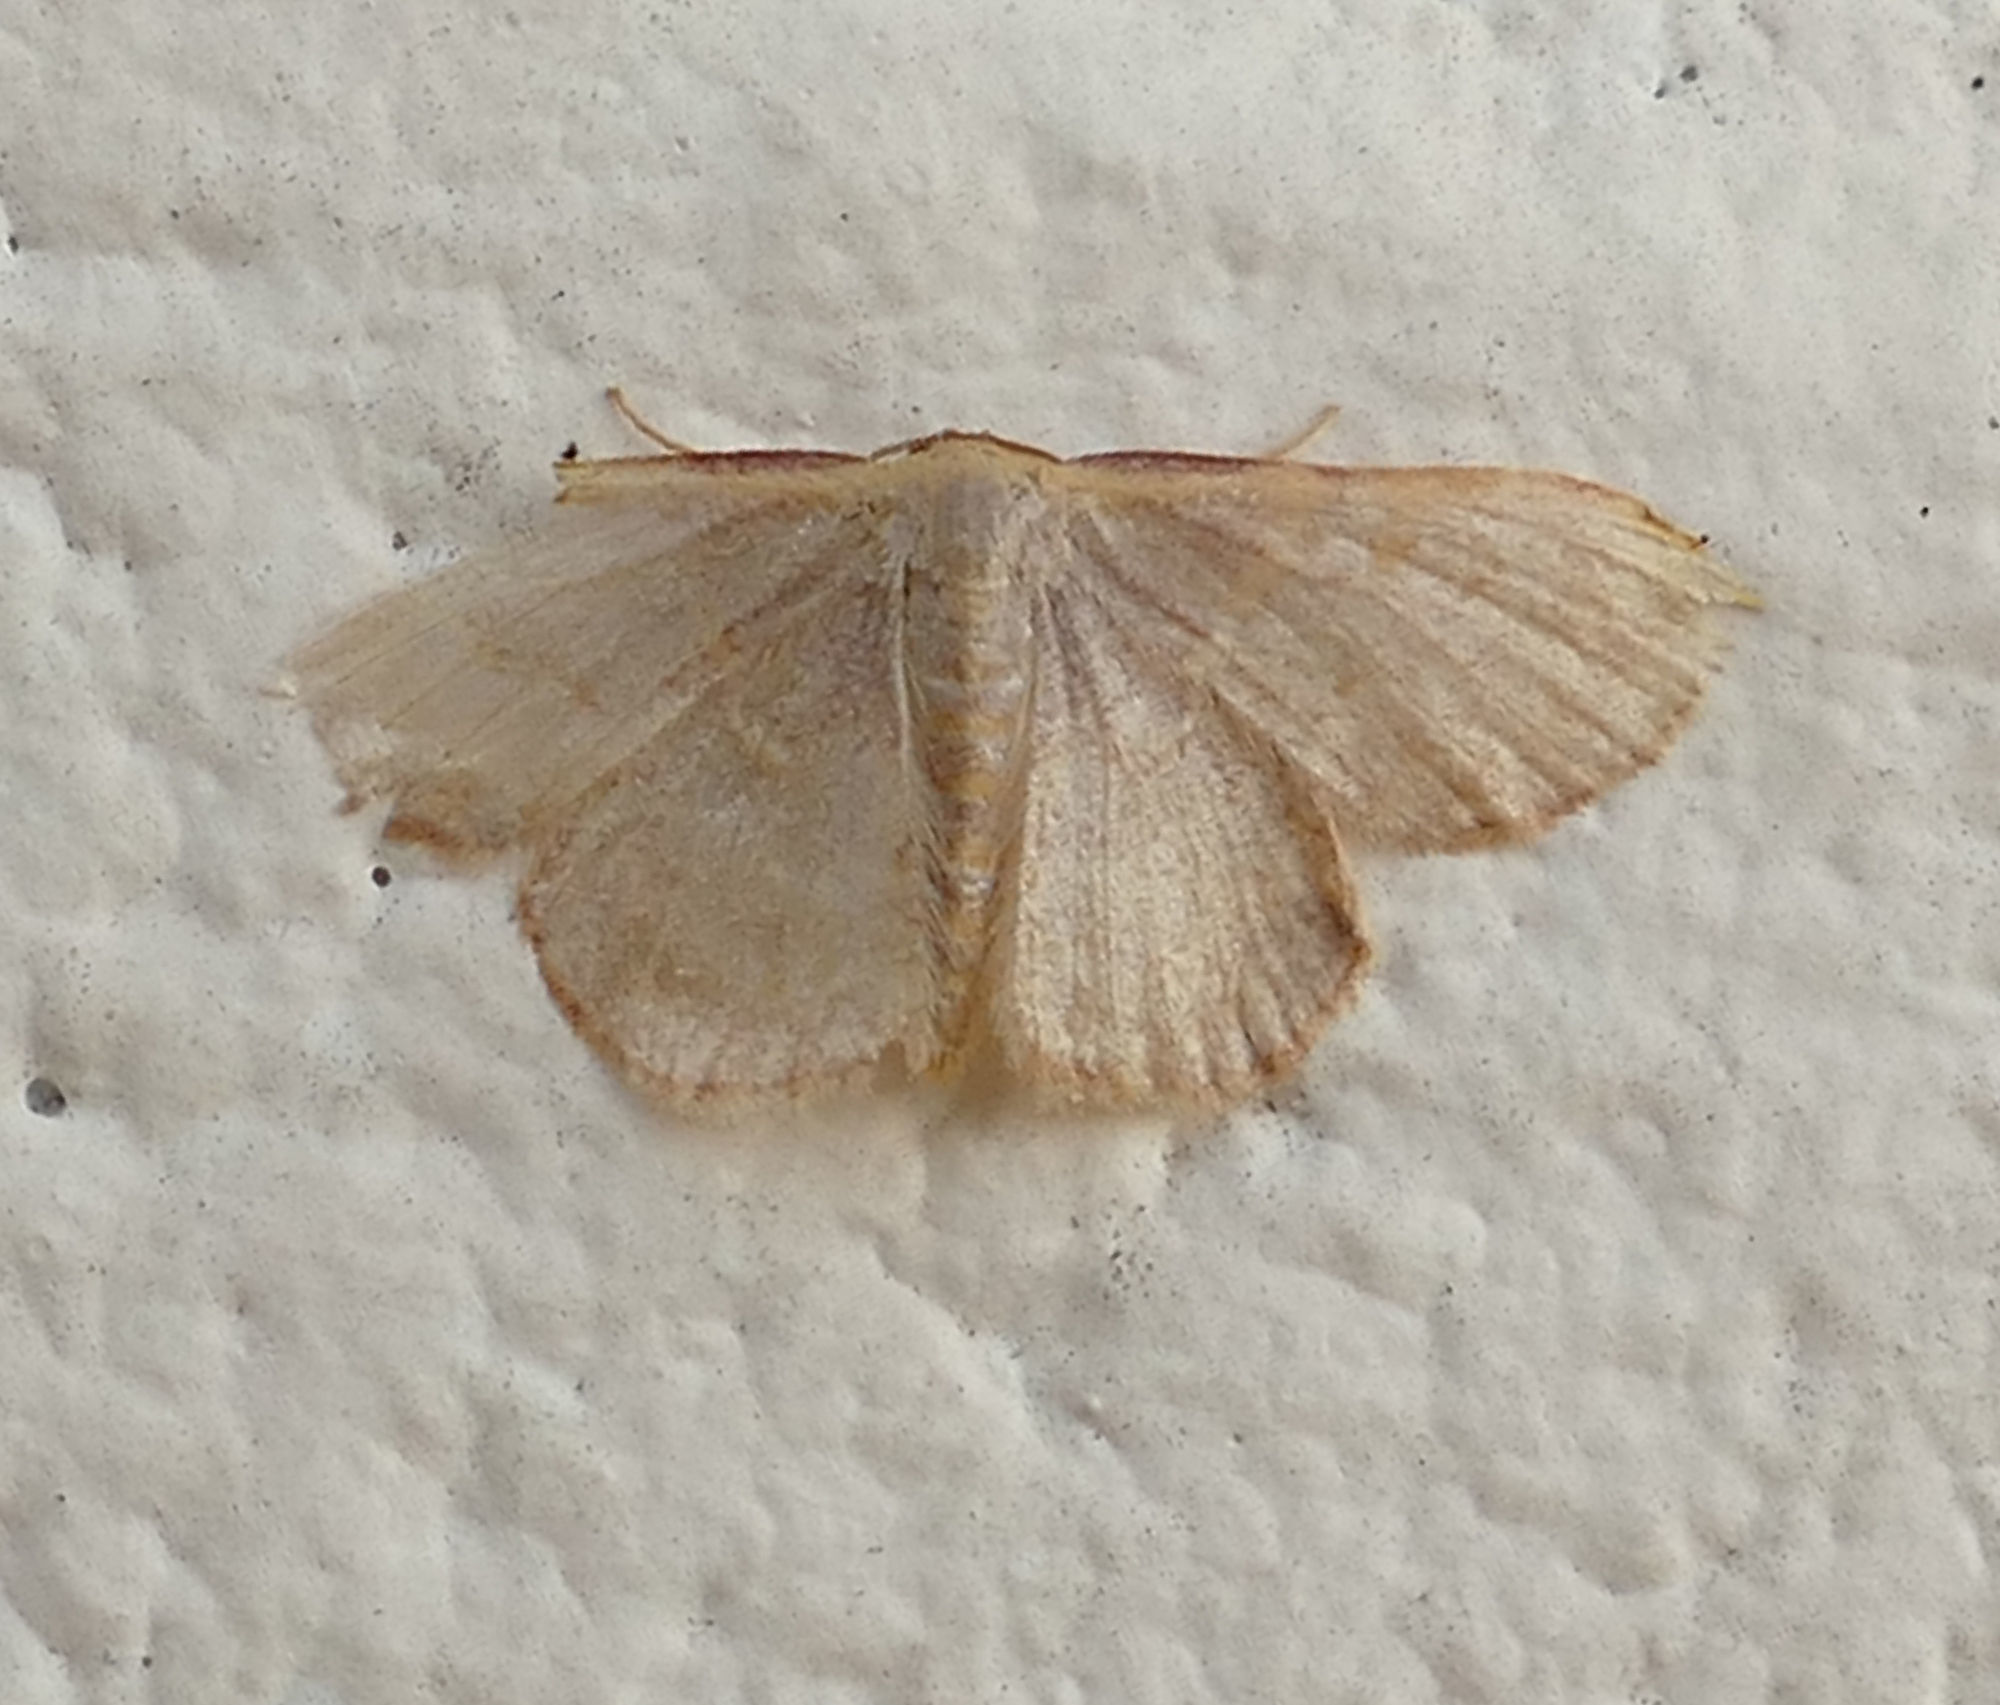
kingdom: Animalia
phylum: Arthropoda
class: Insecta
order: Lepidoptera
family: Geometridae
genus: Leptostales
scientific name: Leptostales pannaria
